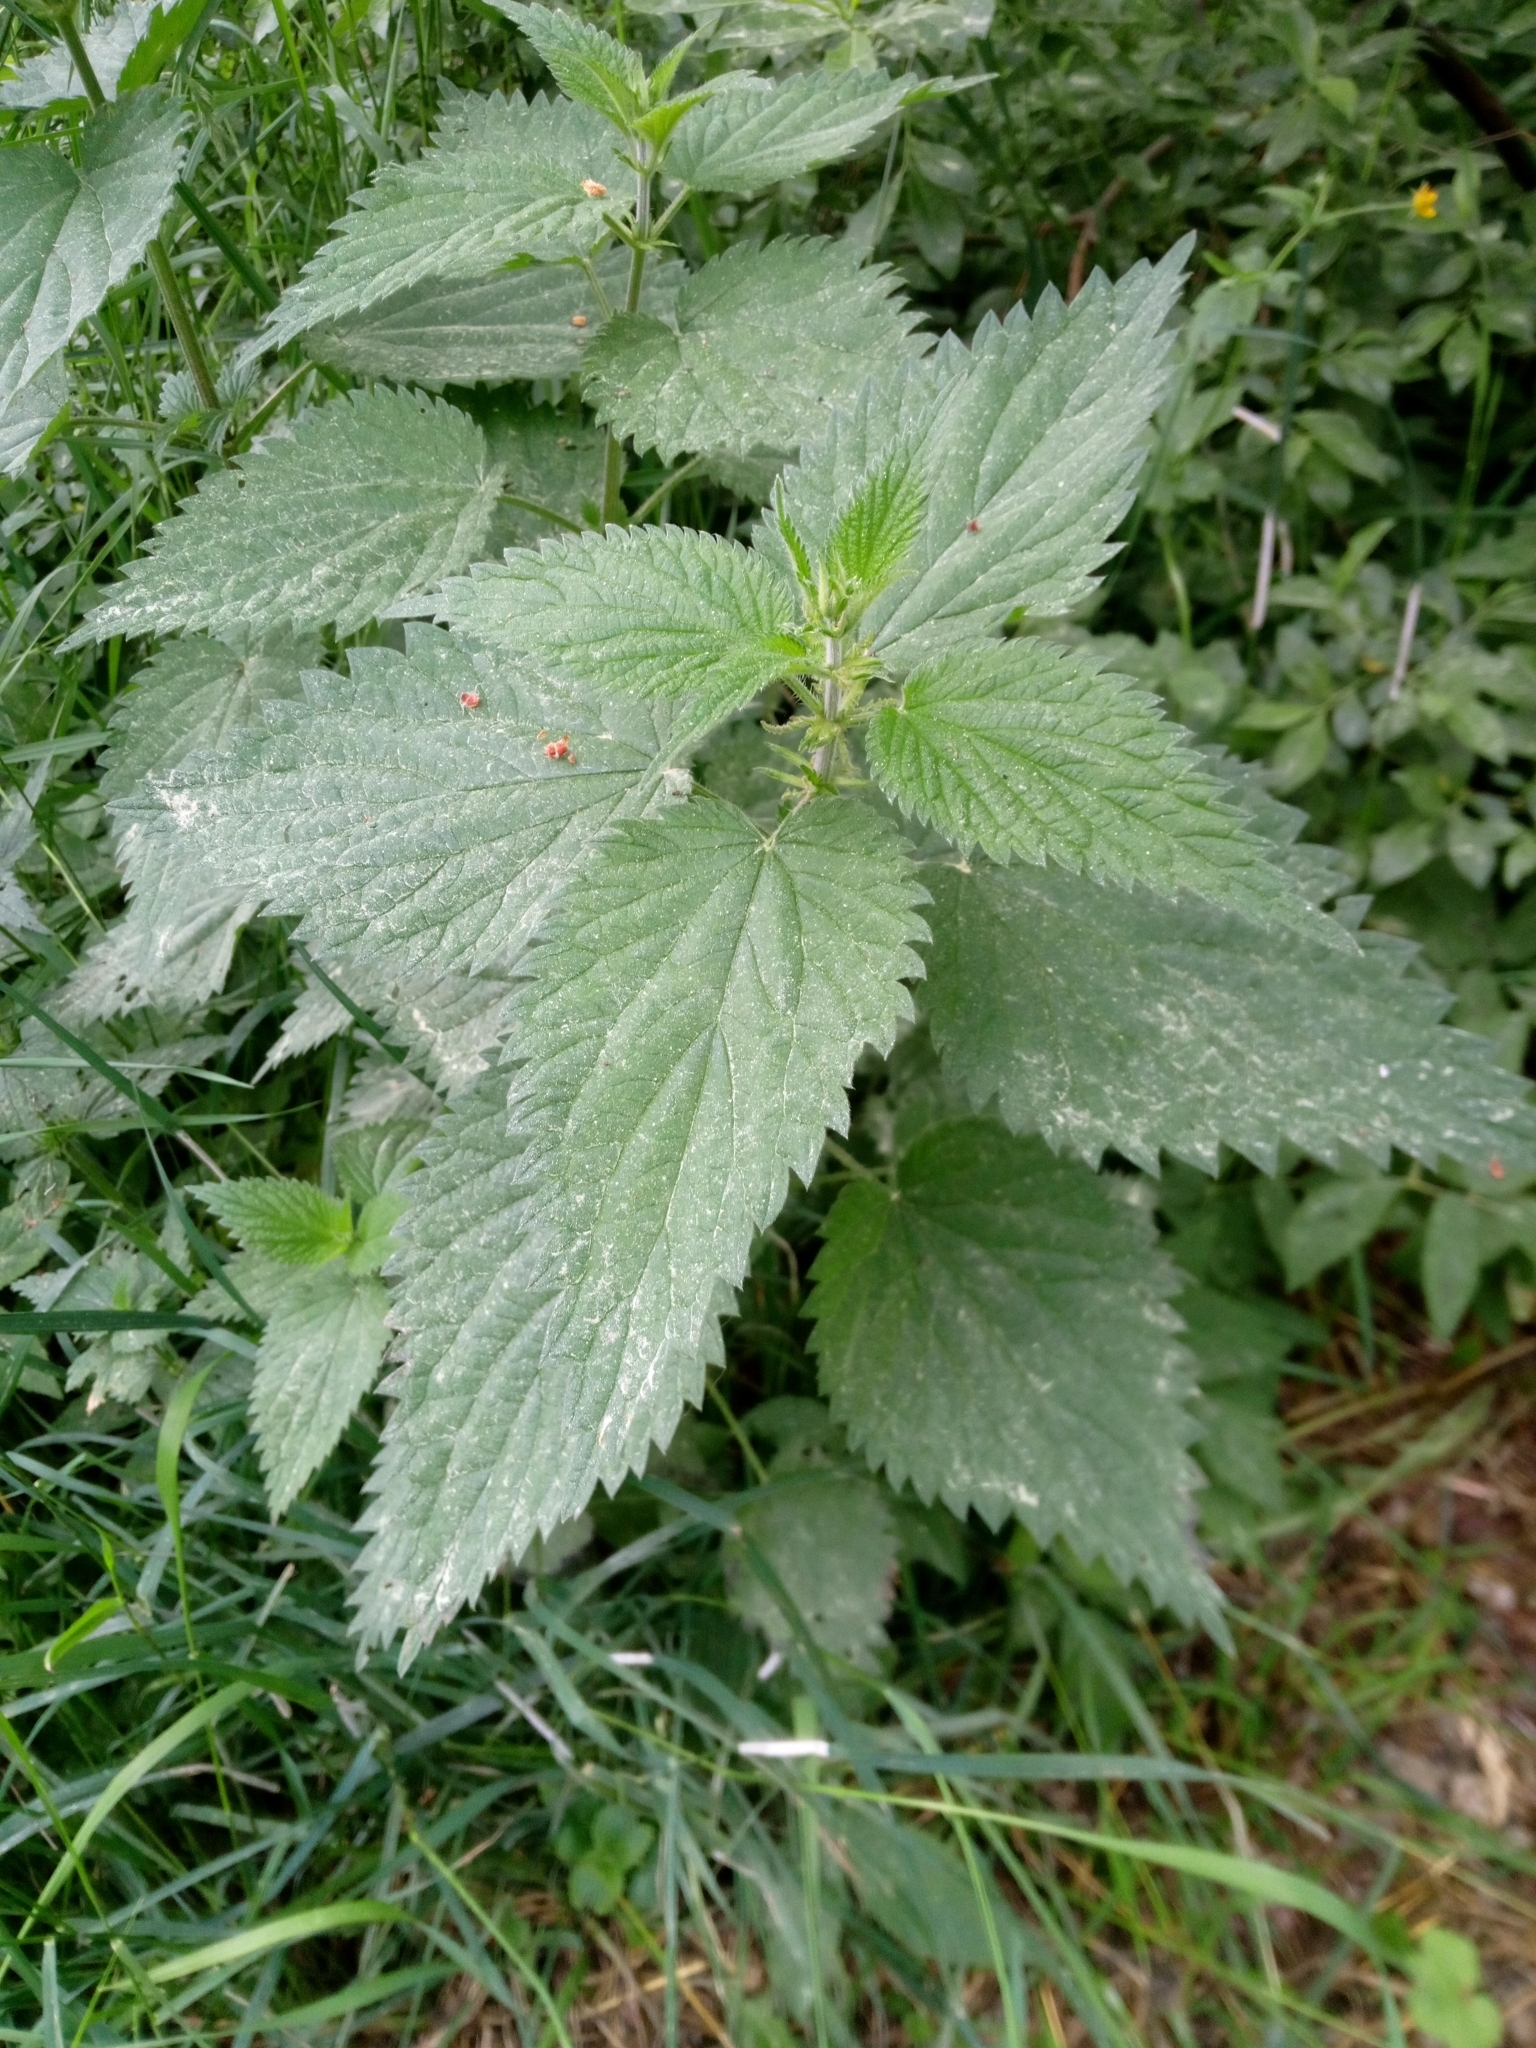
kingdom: Plantae
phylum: Tracheophyta
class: Magnoliopsida
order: Rosales
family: Urticaceae
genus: Urtica
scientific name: Urtica dioica
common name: Common nettle
